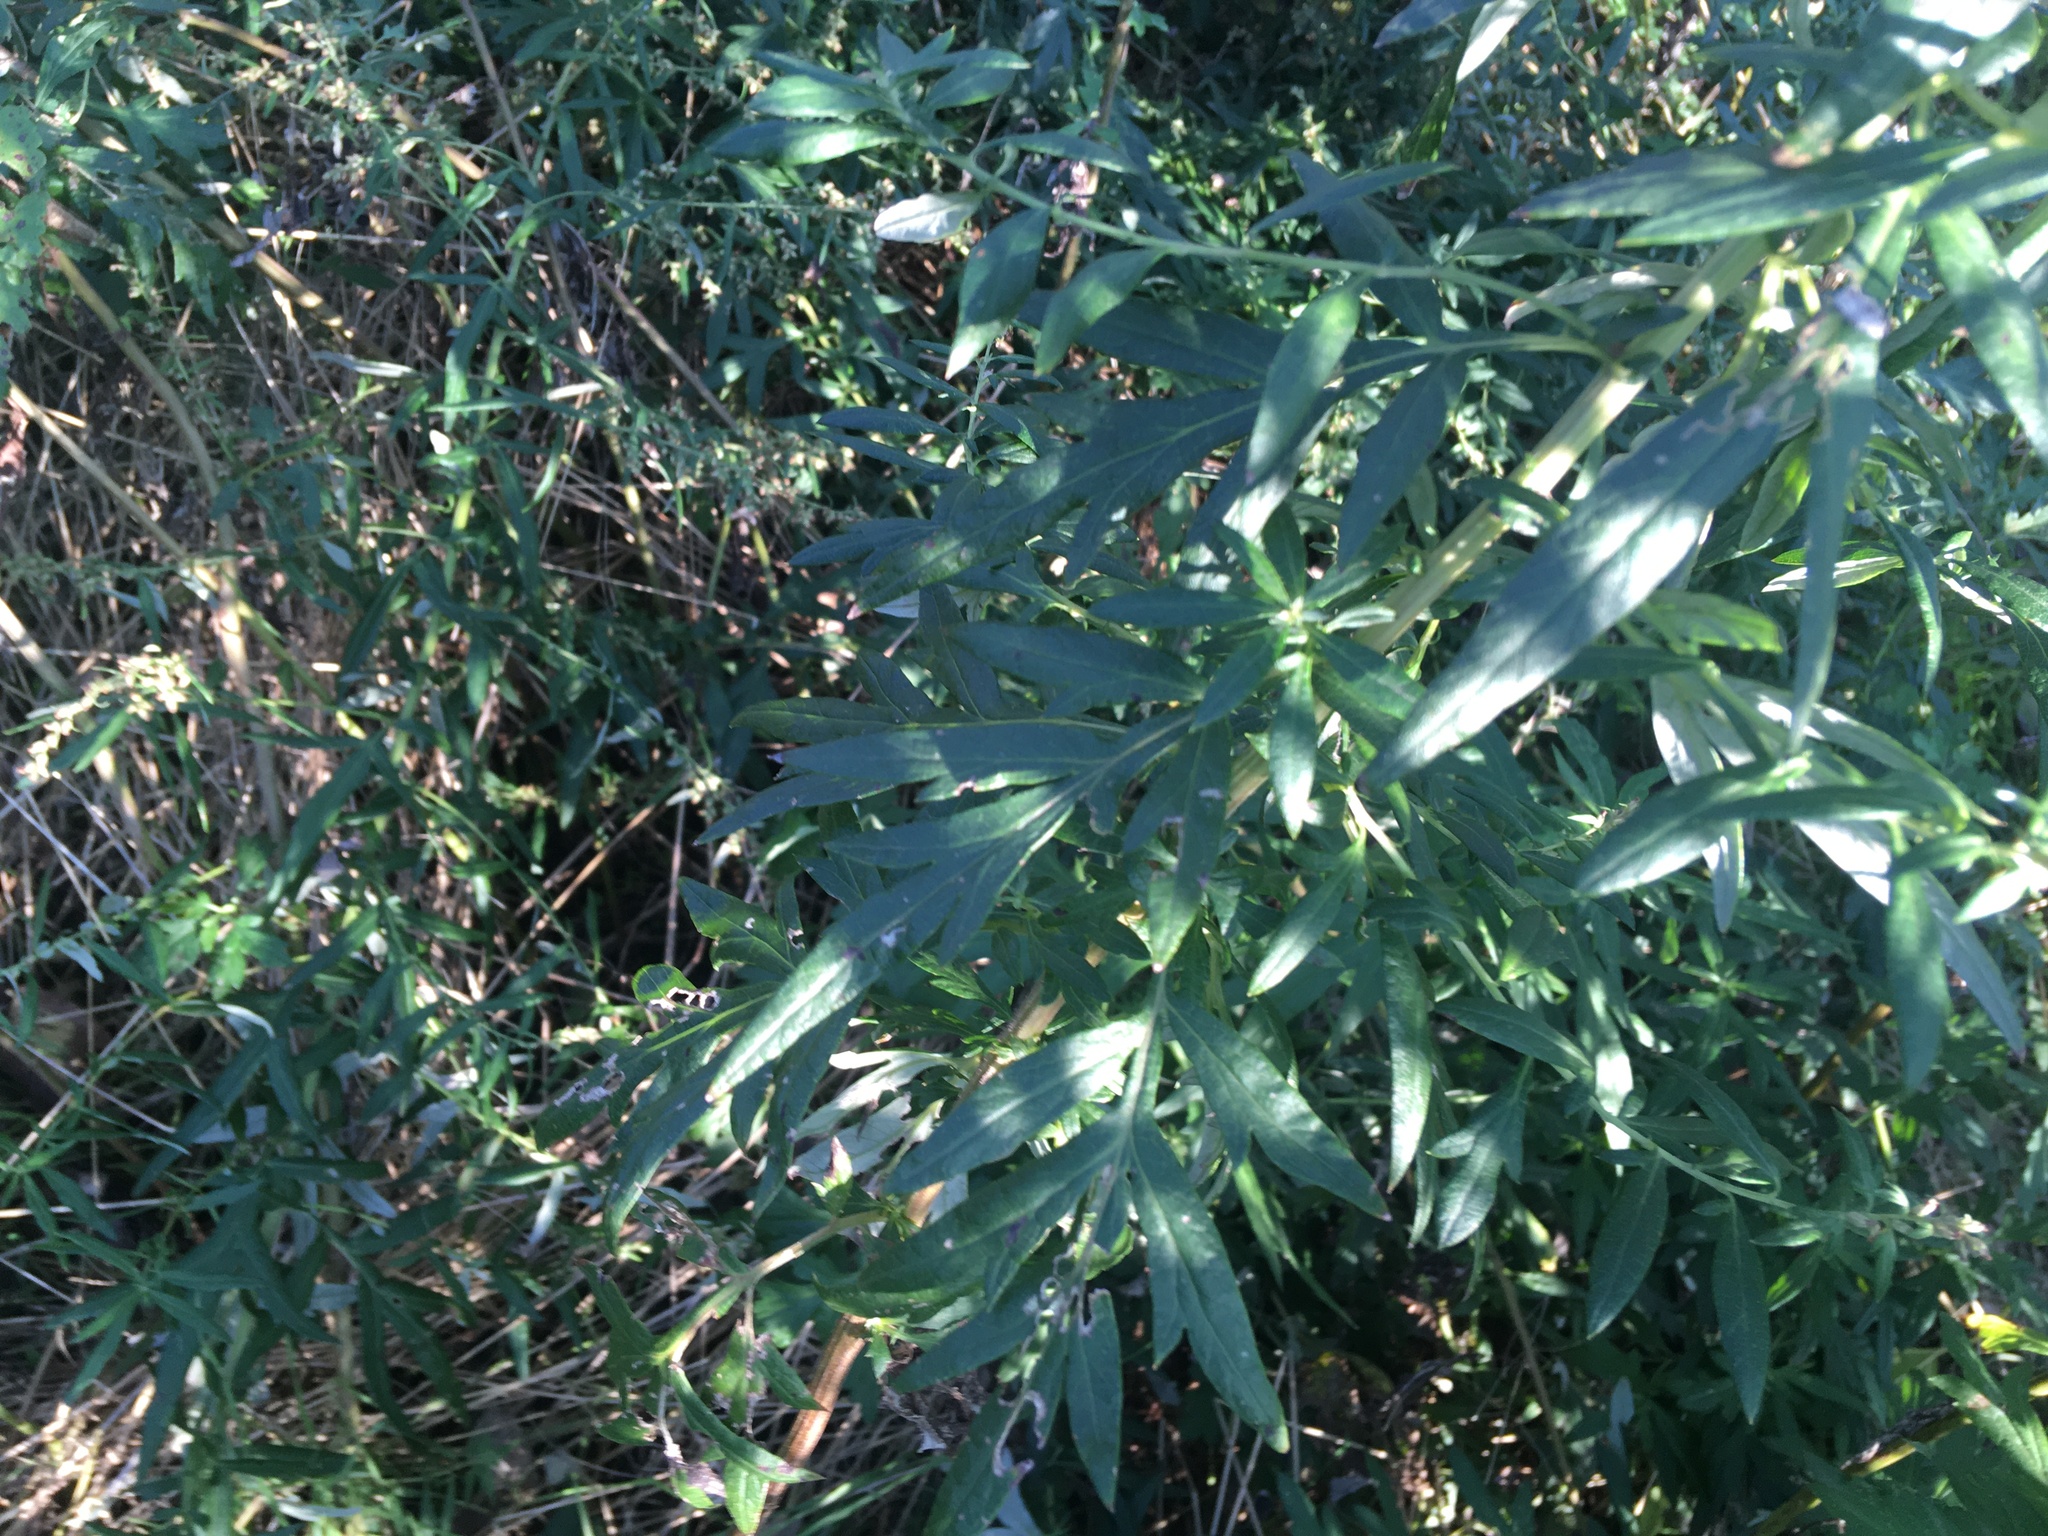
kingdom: Plantae
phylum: Tracheophyta
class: Magnoliopsida
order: Asterales
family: Asteraceae
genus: Artemisia
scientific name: Artemisia vulgaris
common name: Mugwort
